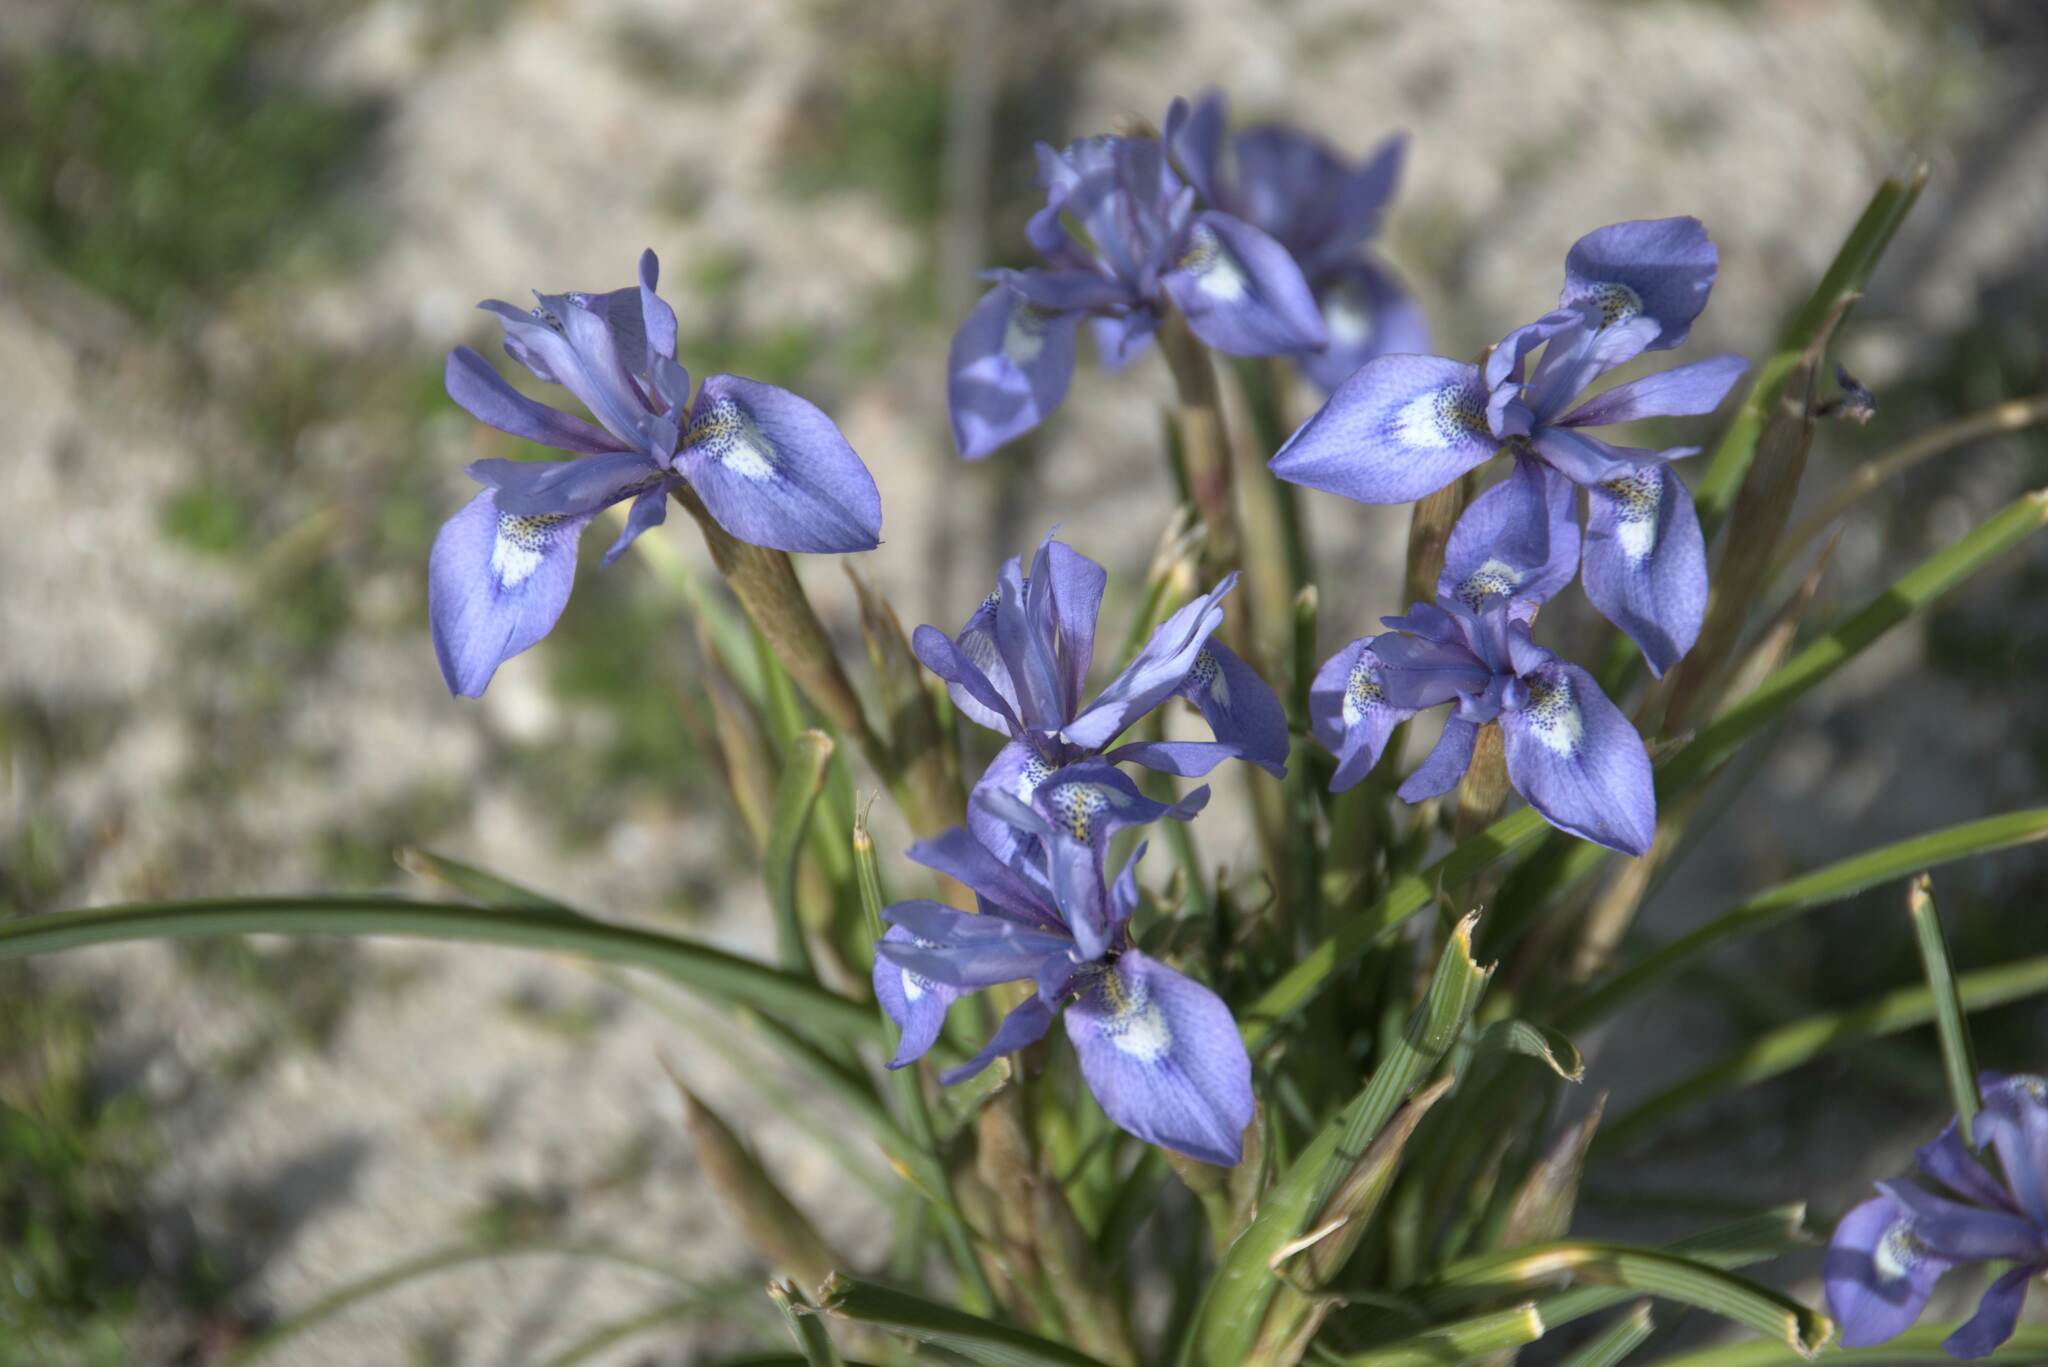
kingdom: Plantae
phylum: Tracheophyta
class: Liliopsida
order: Asparagales
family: Iridaceae
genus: Moraea
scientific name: Moraea sisyrinchium
